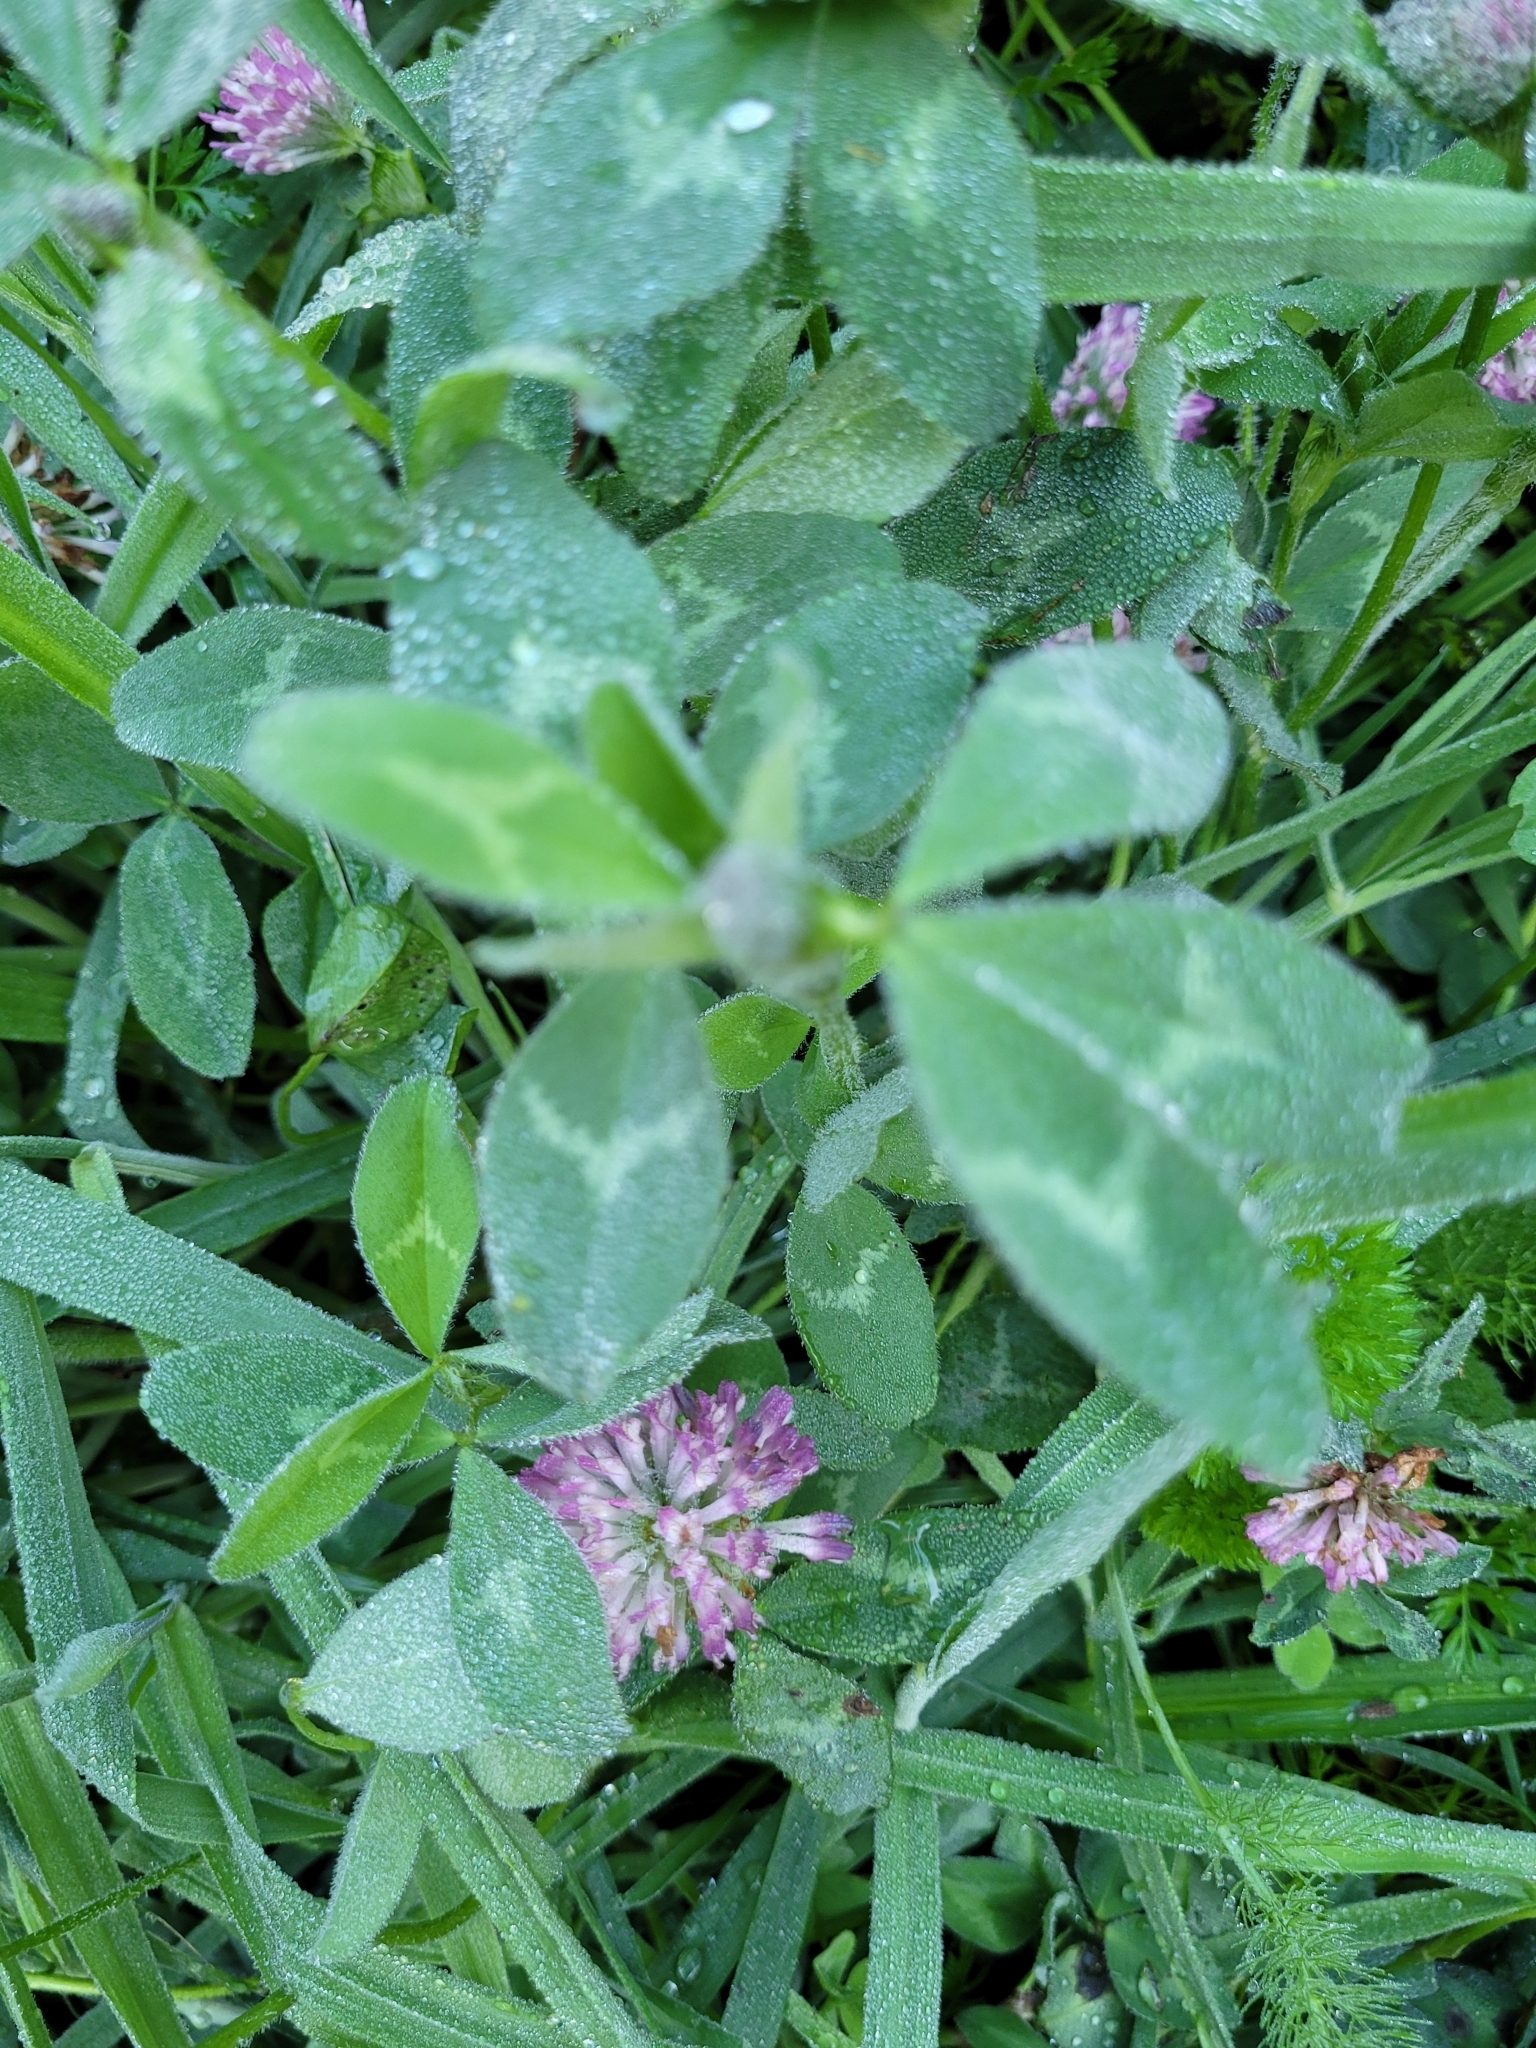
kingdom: Plantae
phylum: Tracheophyta
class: Magnoliopsida
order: Fabales
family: Fabaceae
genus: Trifolium
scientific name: Trifolium pratense
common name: Red clover
